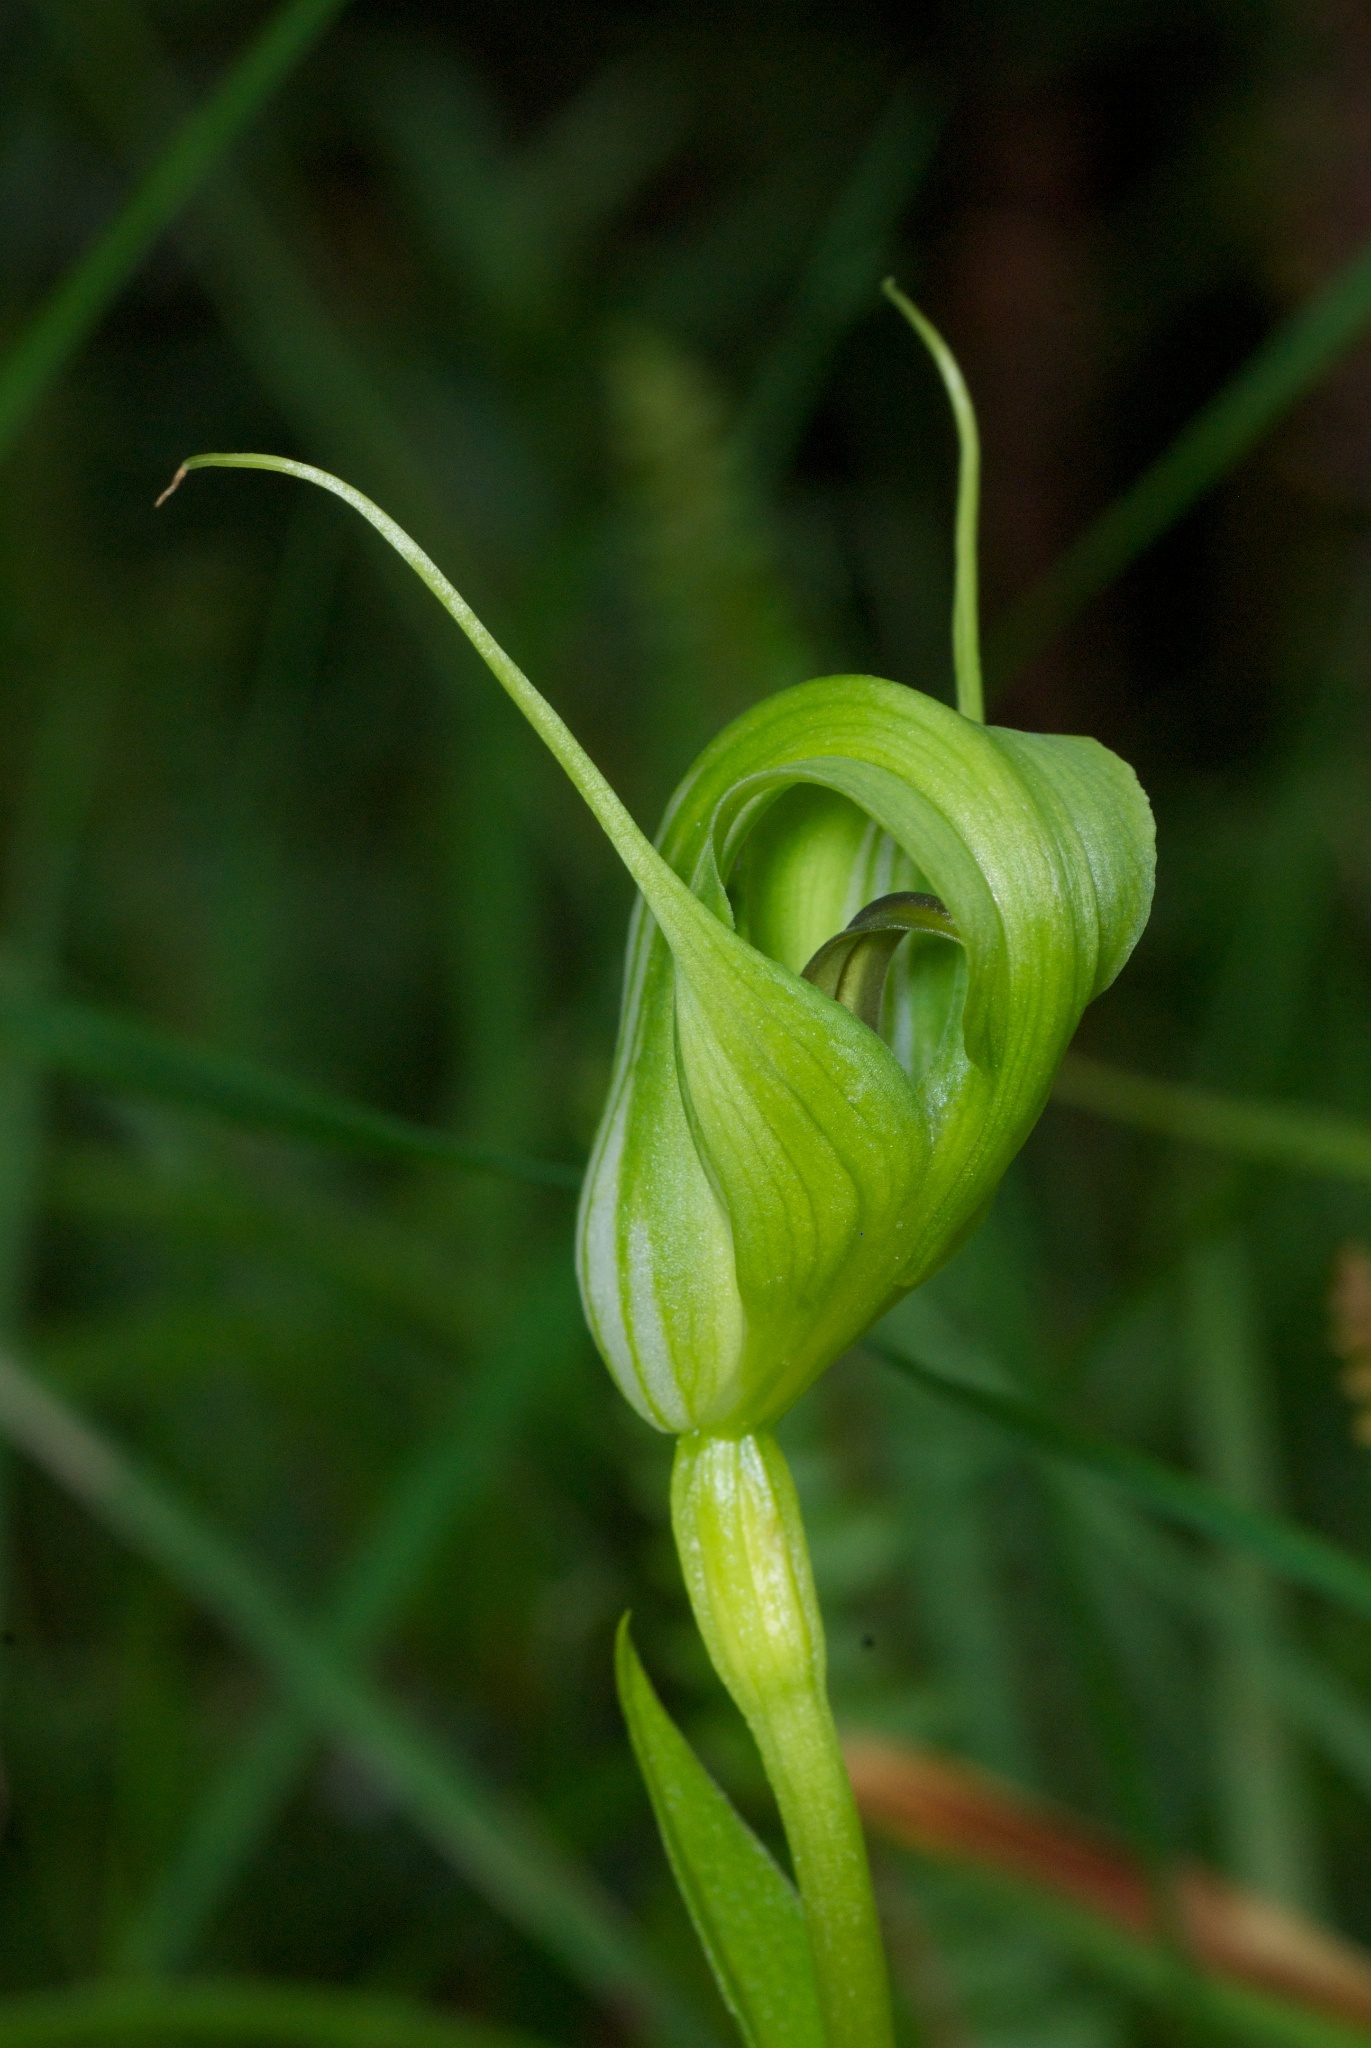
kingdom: Plantae
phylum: Tracheophyta
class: Liliopsida
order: Asparagales
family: Orchidaceae
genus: Pterostylis
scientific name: Pterostylis oliveri
